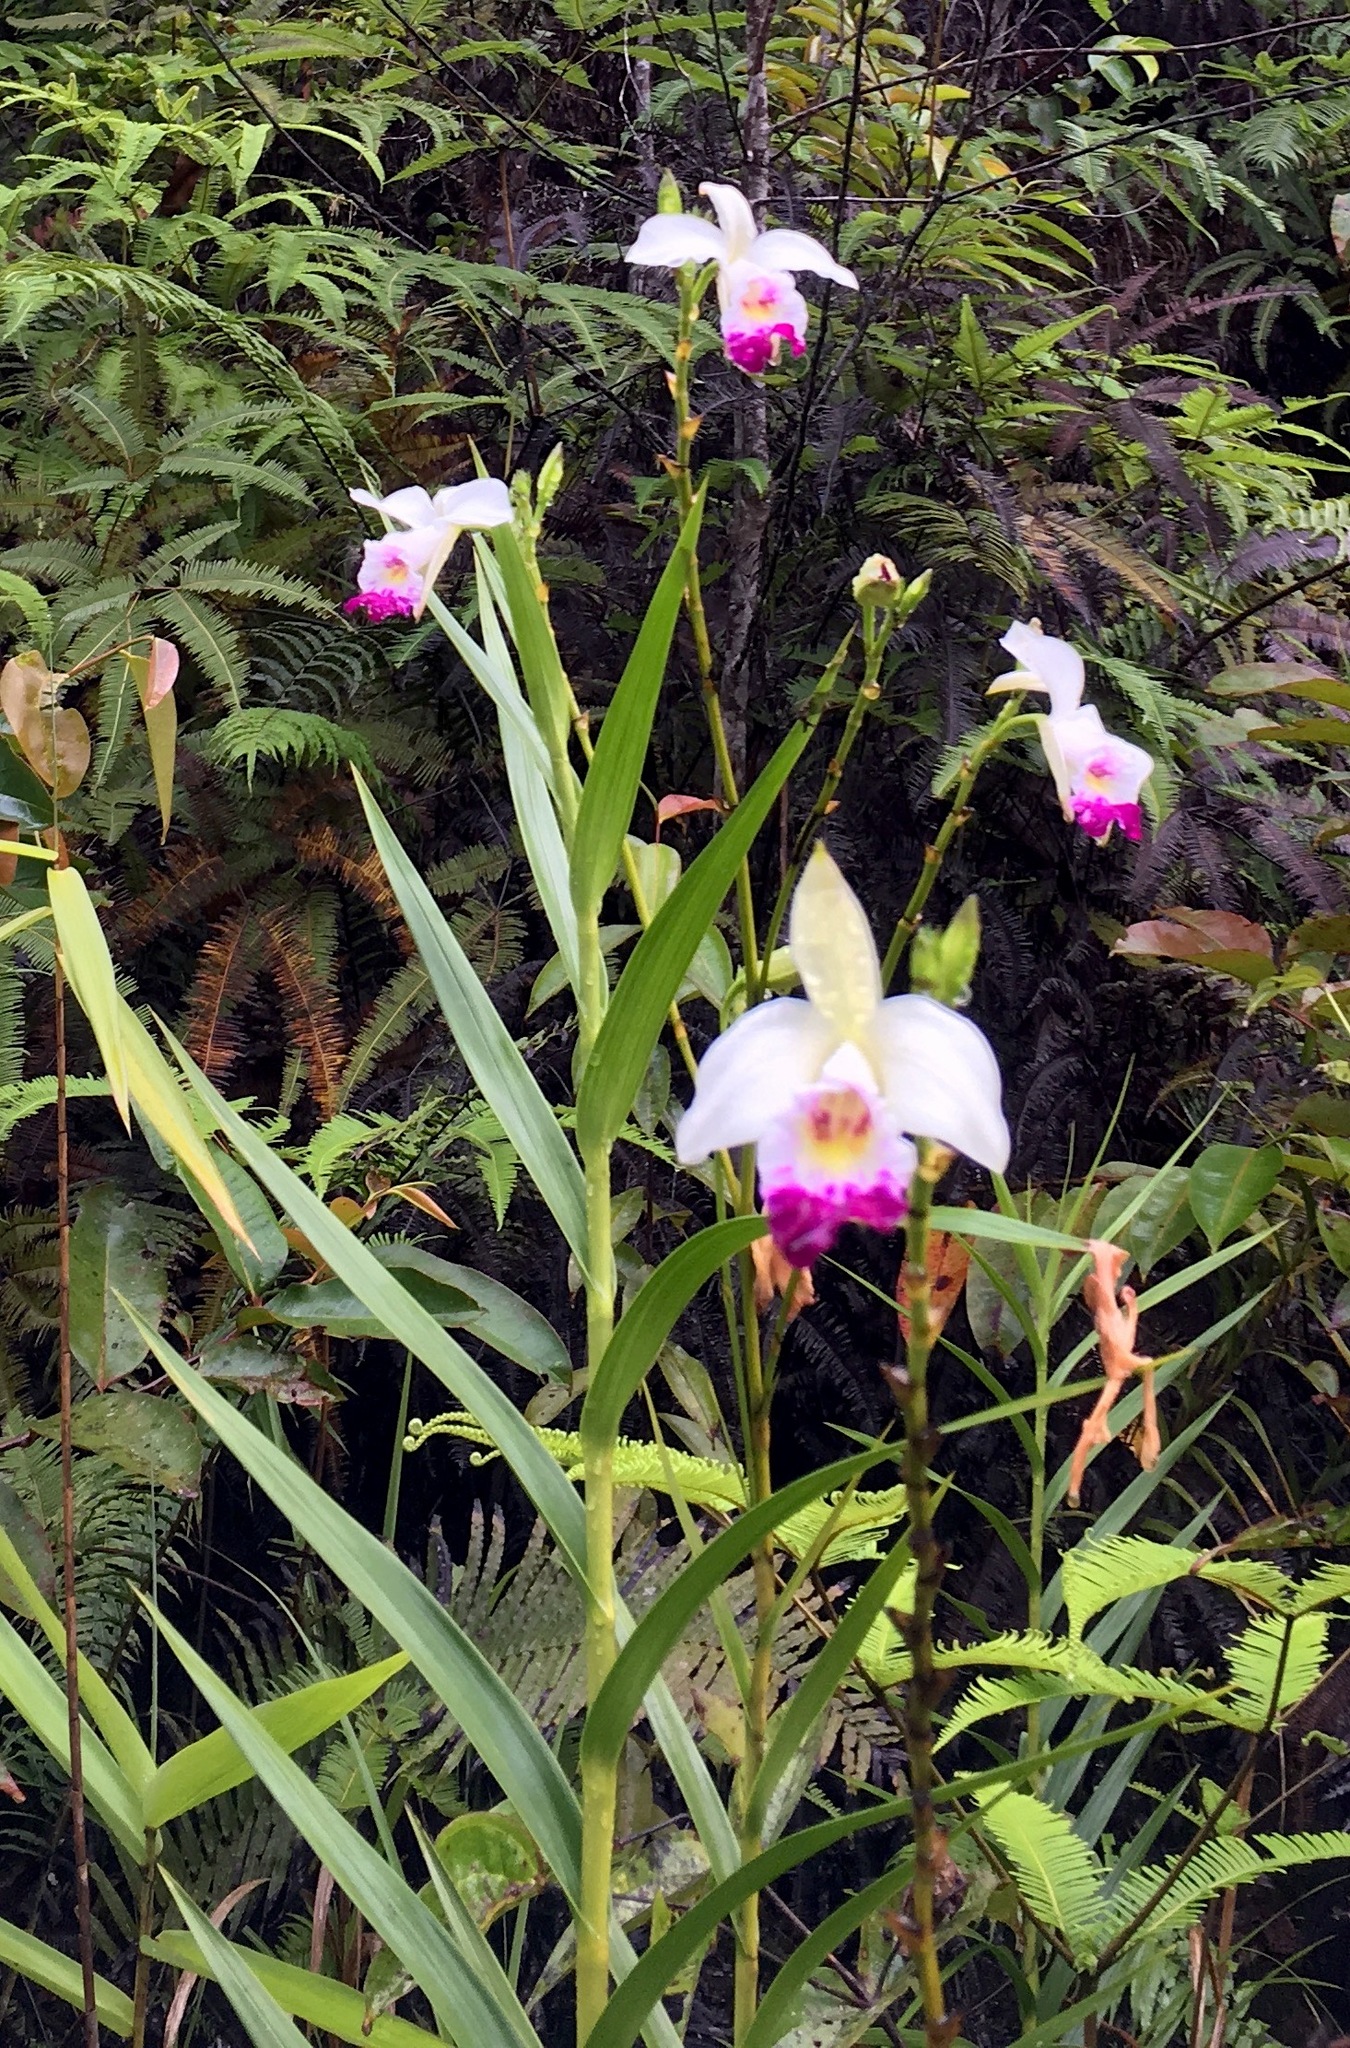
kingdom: Plantae
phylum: Tracheophyta
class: Liliopsida
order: Asparagales
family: Orchidaceae
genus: Arundina
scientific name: Arundina graminifolia
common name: Bamboo orchid
